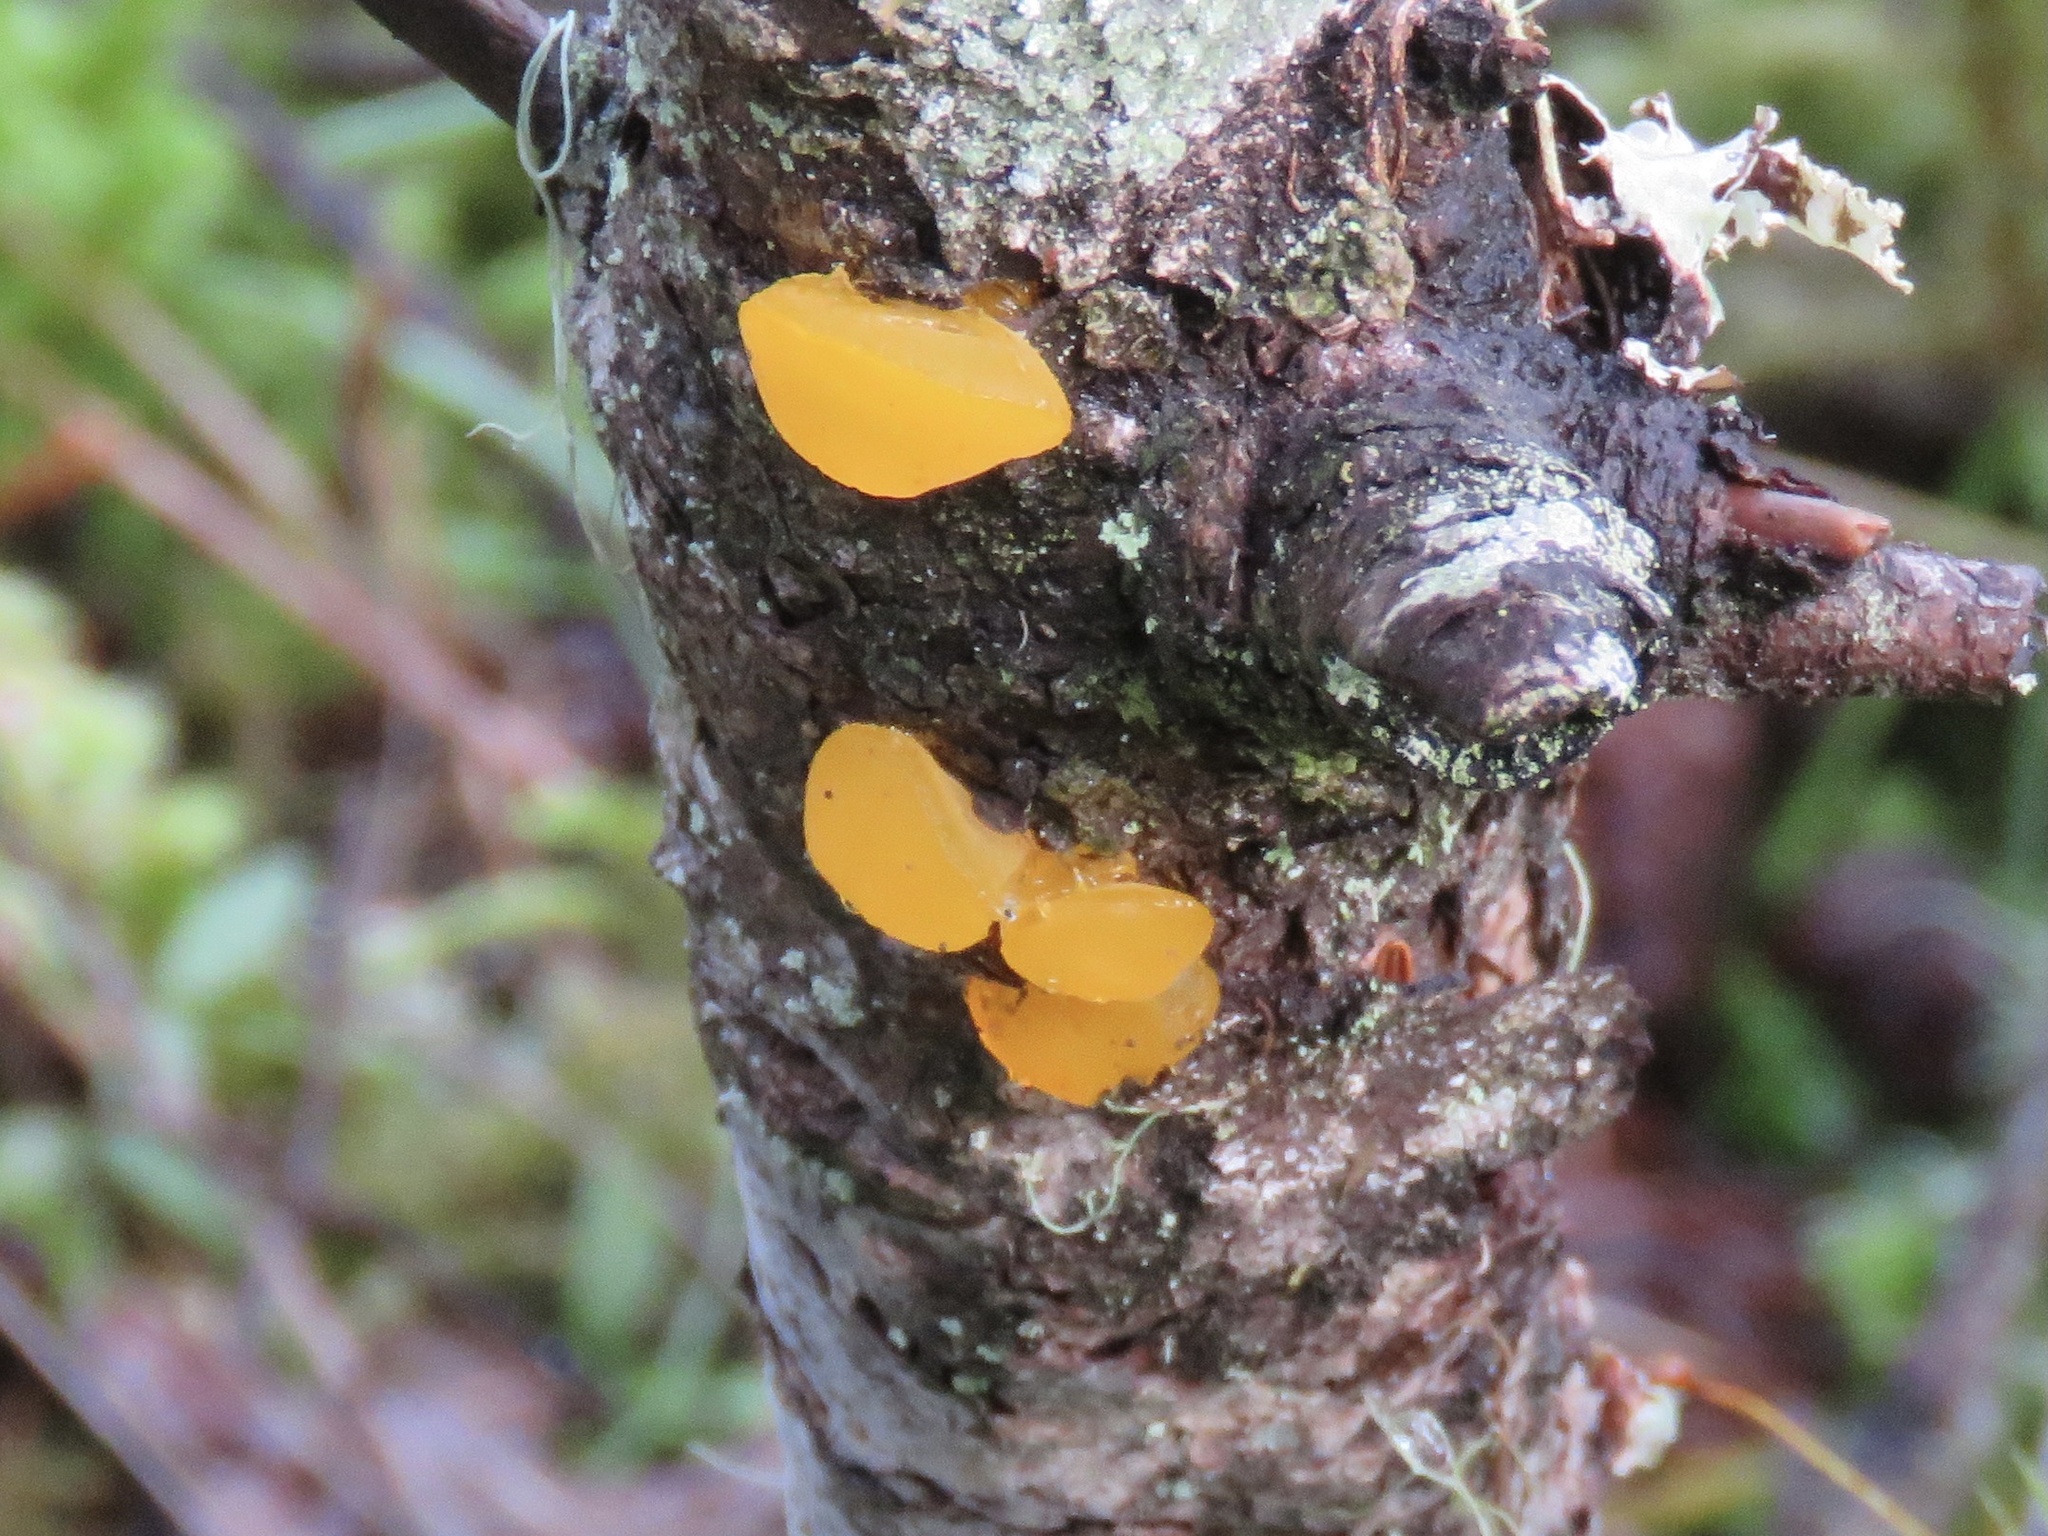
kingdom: Fungi
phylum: Basidiomycota
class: Dacrymycetes
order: Dacrymycetales
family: Dacrymycetaceae
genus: Guepiniopsis
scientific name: Guepiniopsis alpina
